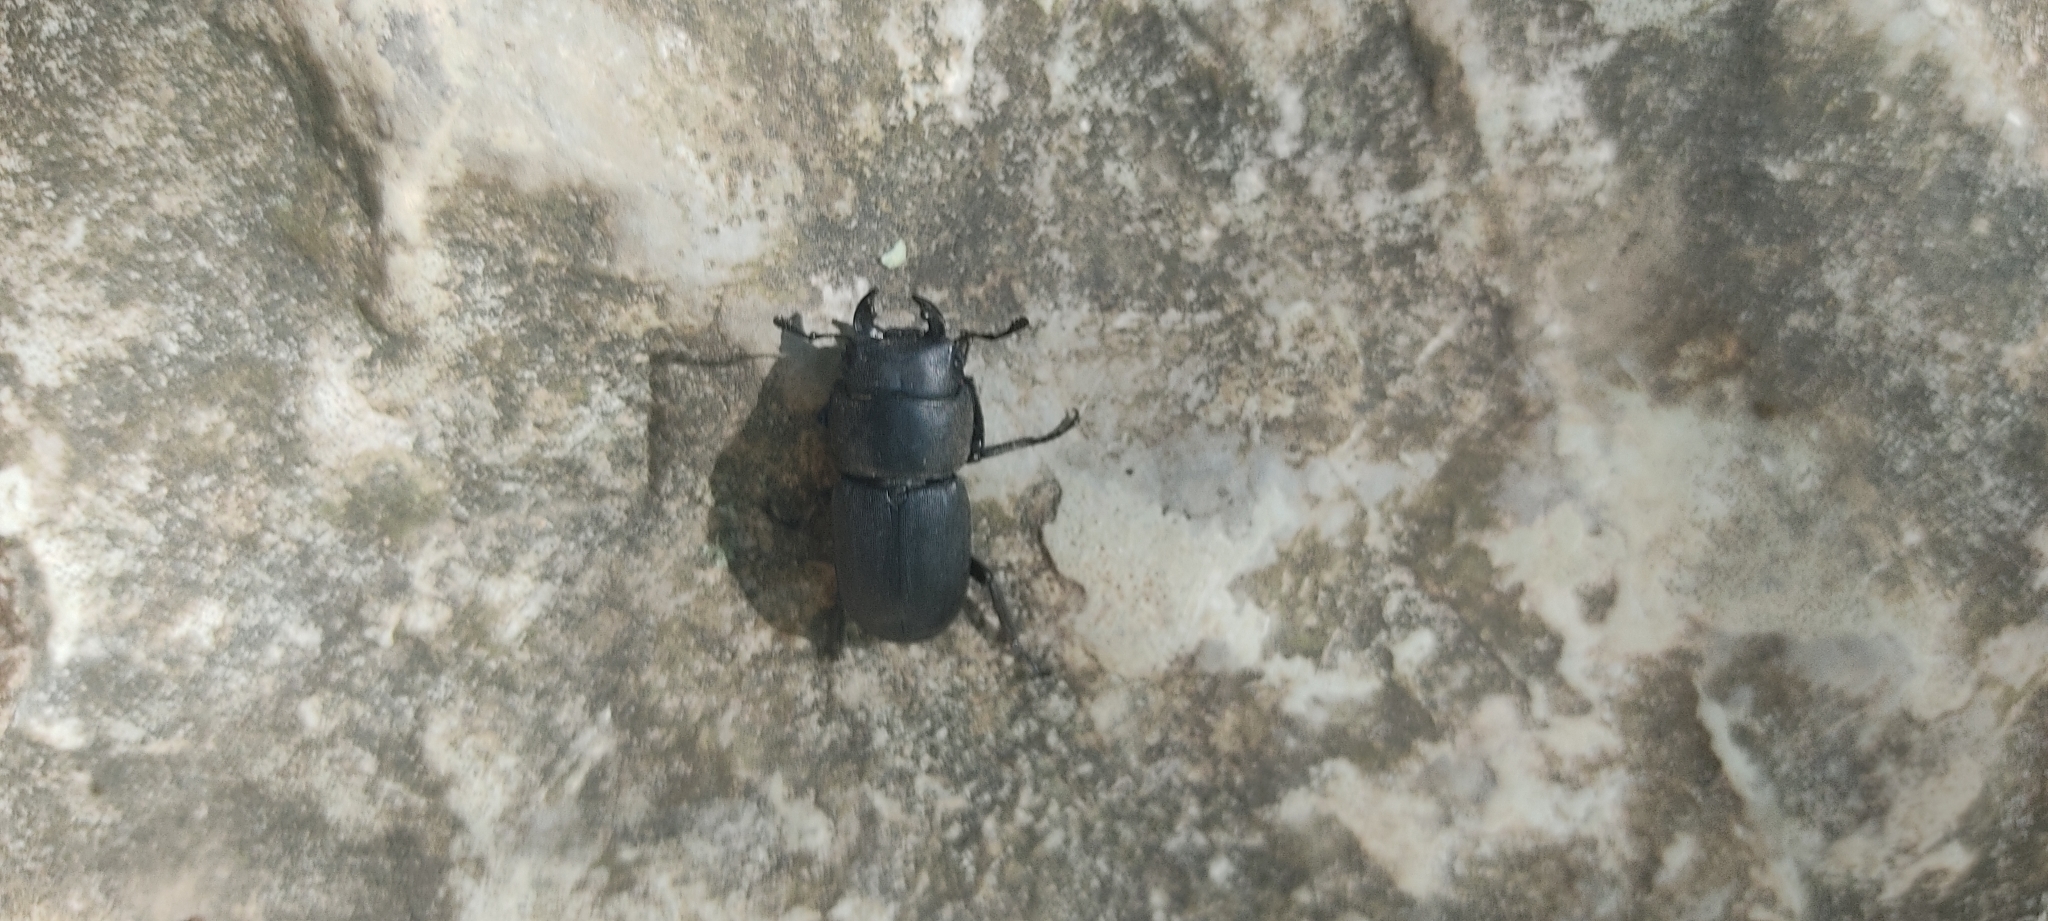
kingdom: Animalia
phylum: Arthropoda
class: Insecta
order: Coleoptera
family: Lucanidae
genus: Dorcus
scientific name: Dorcus parallelipipedus
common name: Lesser stag beetle
